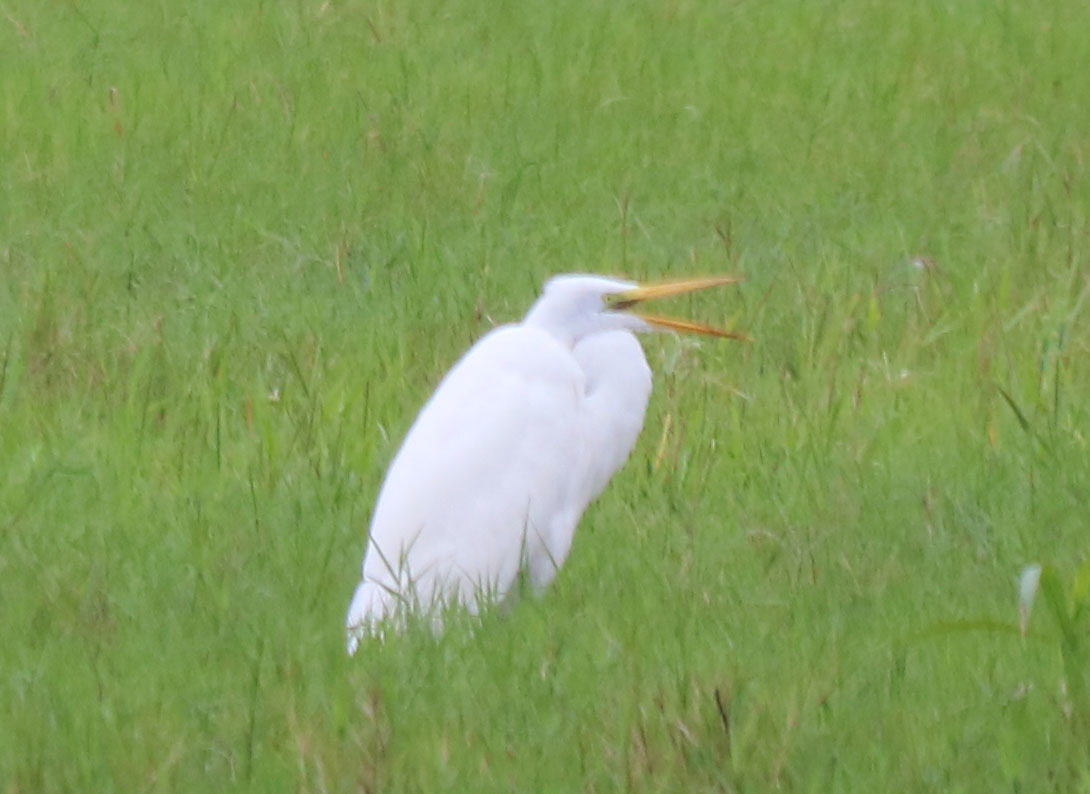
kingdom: Animalia
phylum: Chordata
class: Aves
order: Pelecaniformes
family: Ardeidae
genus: Ardea
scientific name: Ardea alba
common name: Great egret
